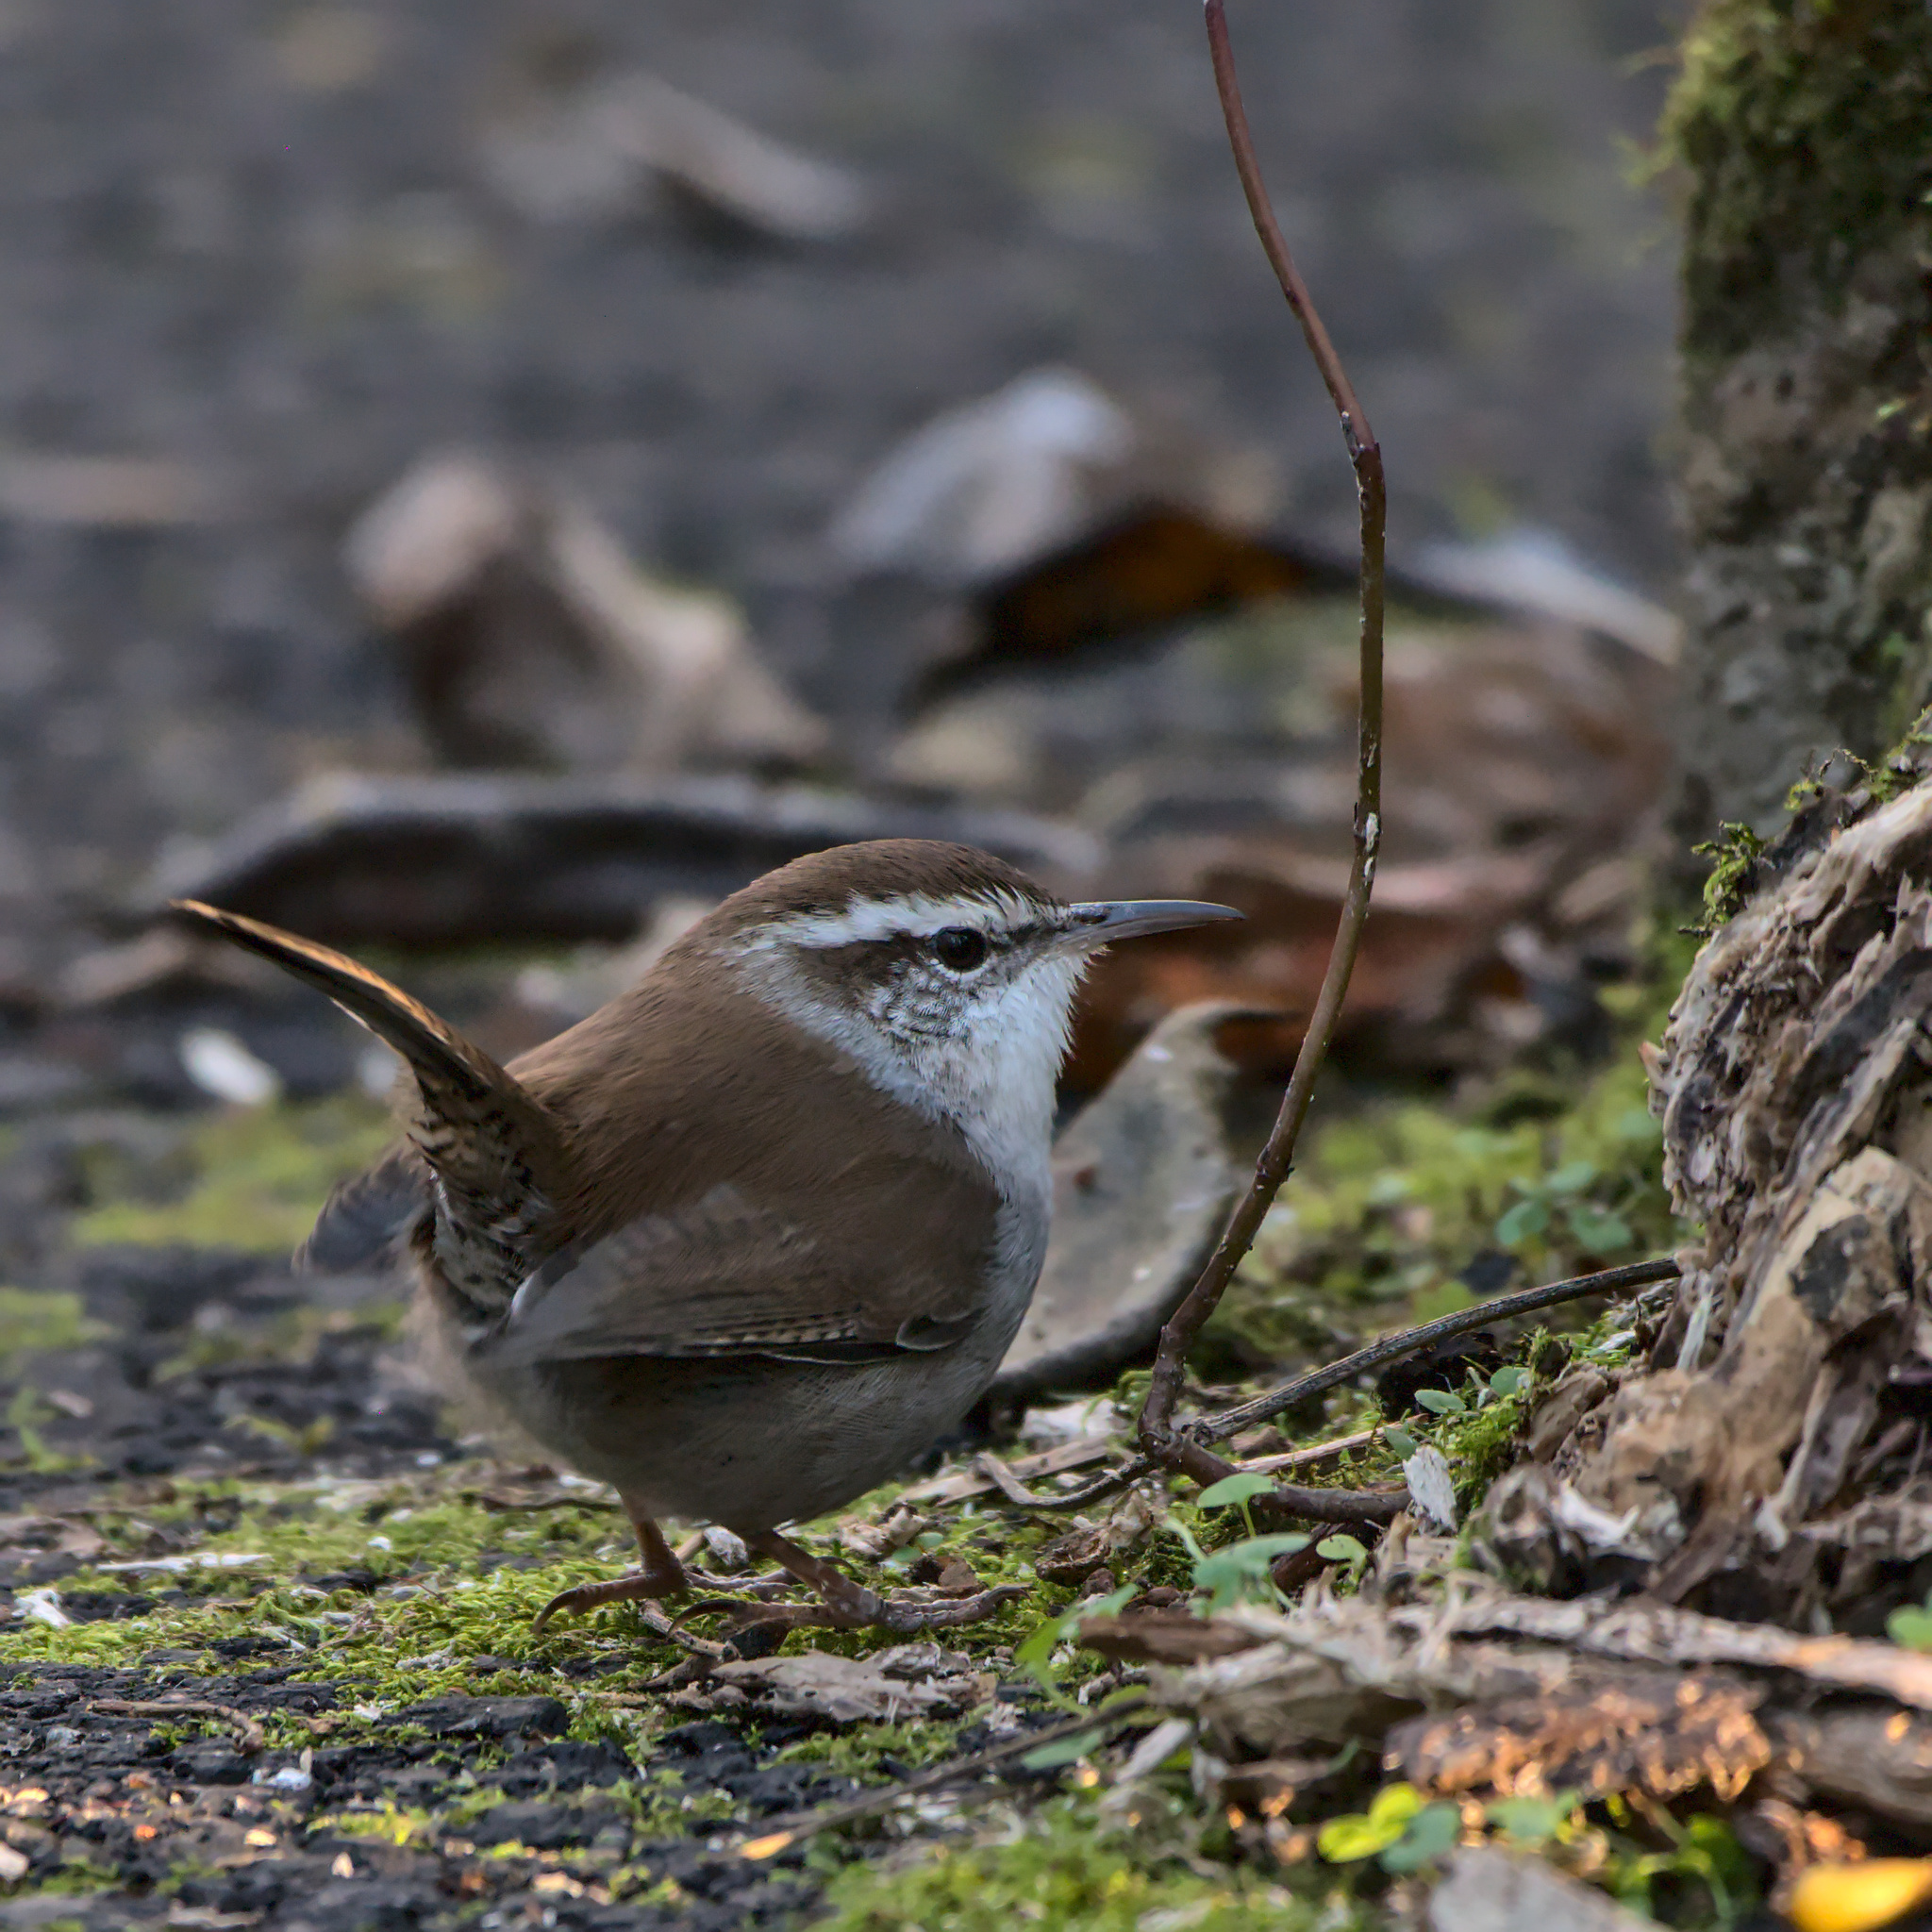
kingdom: Animalia
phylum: Chordata
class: Aves
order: Passeriformes
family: Troglodytidae
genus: Thryomanes
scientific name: Thryomanes bewickii
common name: Bewick's wren
